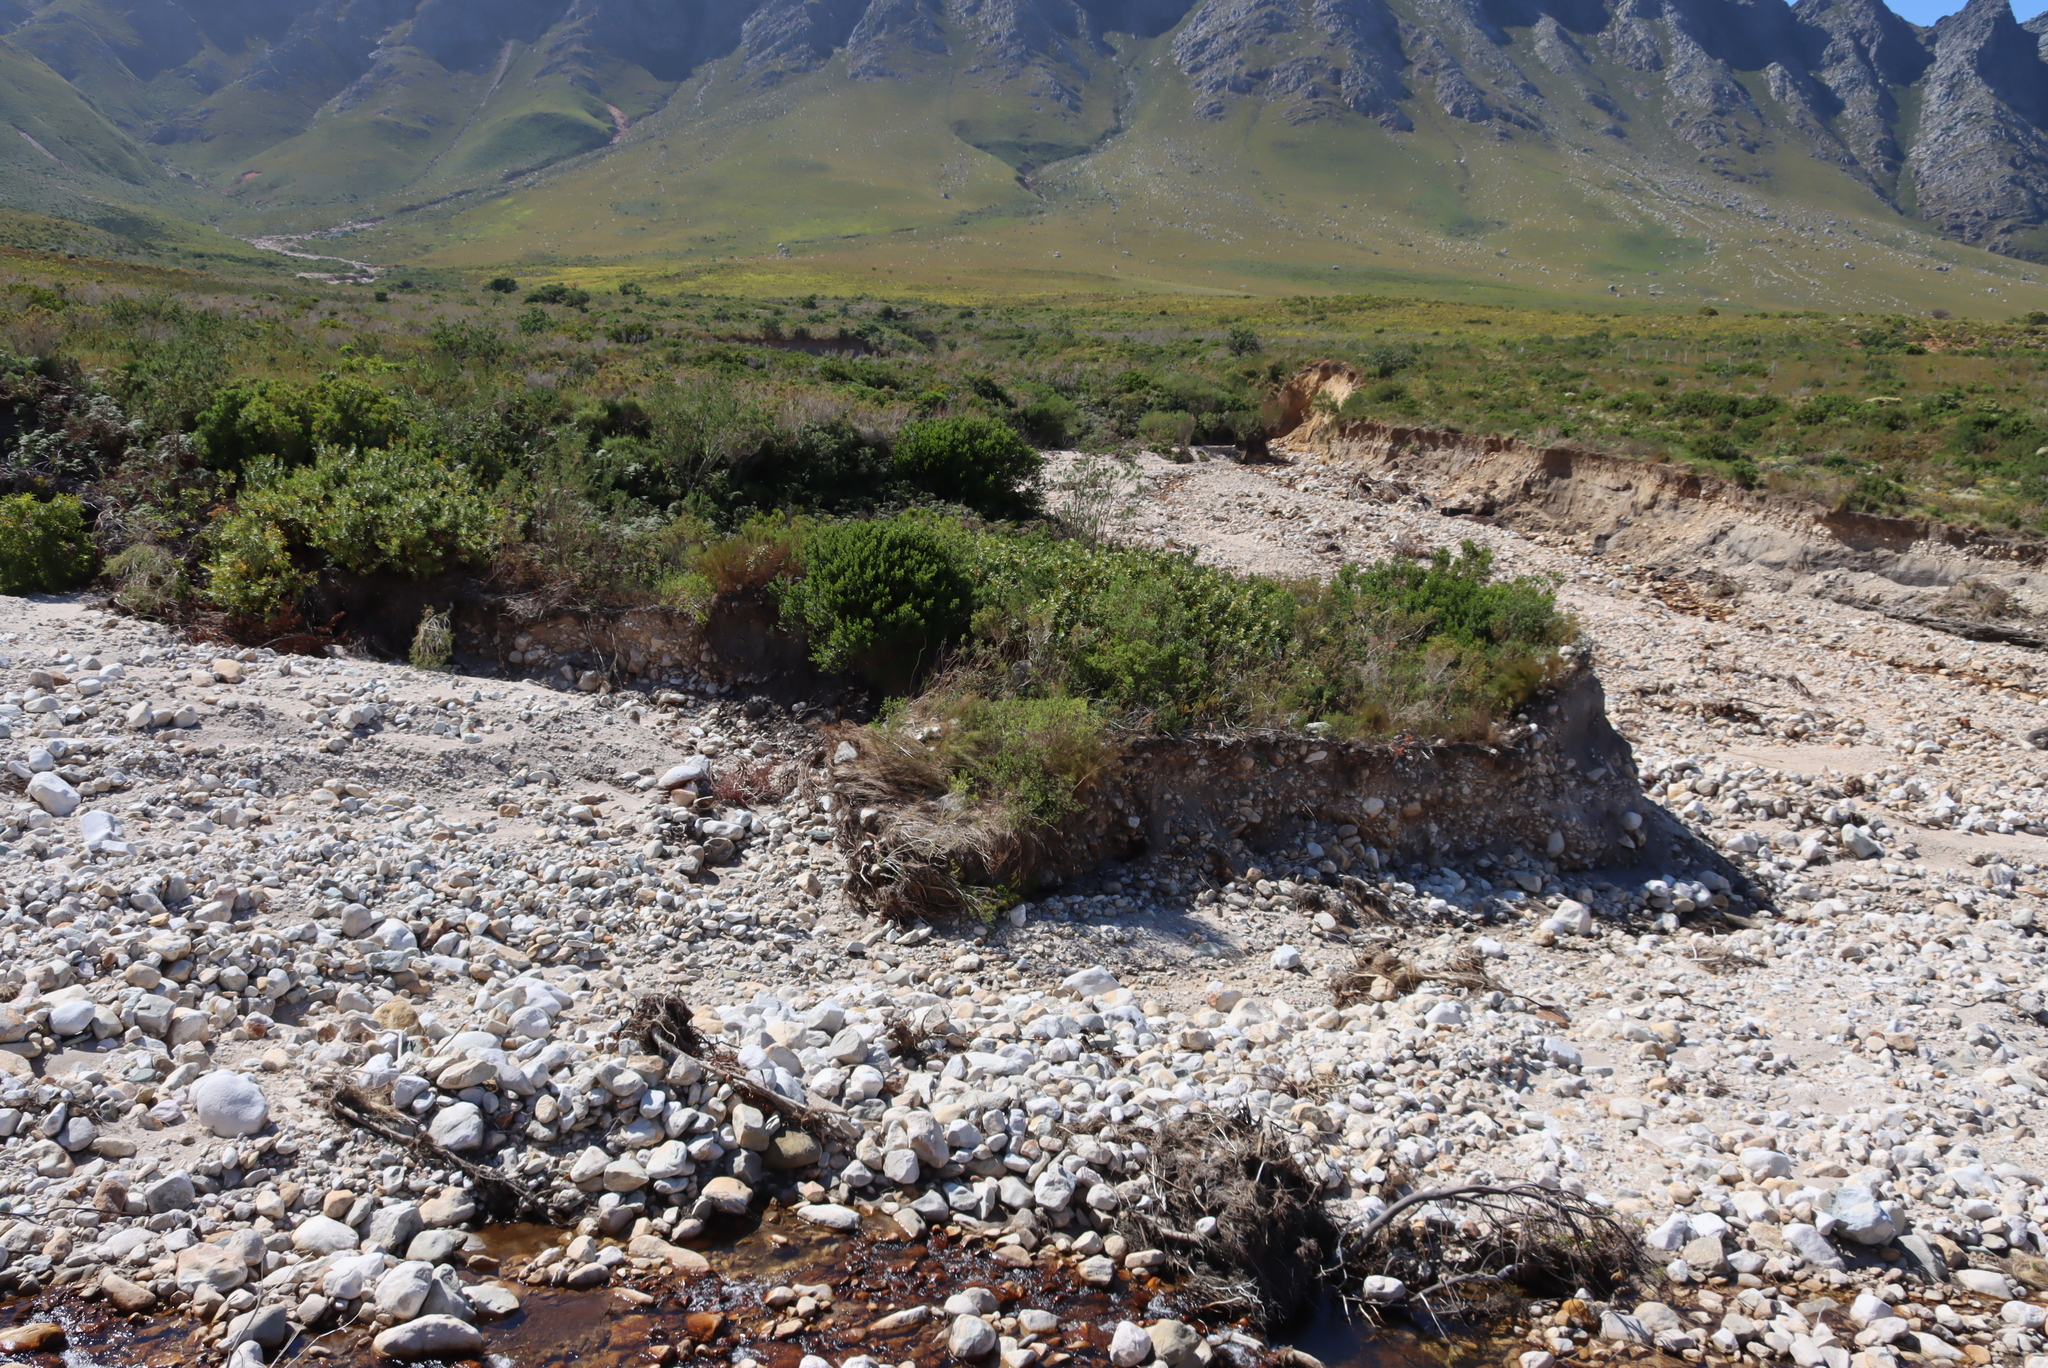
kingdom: Plantae
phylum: Tracheophyta
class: Magnoliopsida
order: Proteales
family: Proteaceae
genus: Brabejum
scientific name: Brabejum stellatifolium
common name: Wild almond
